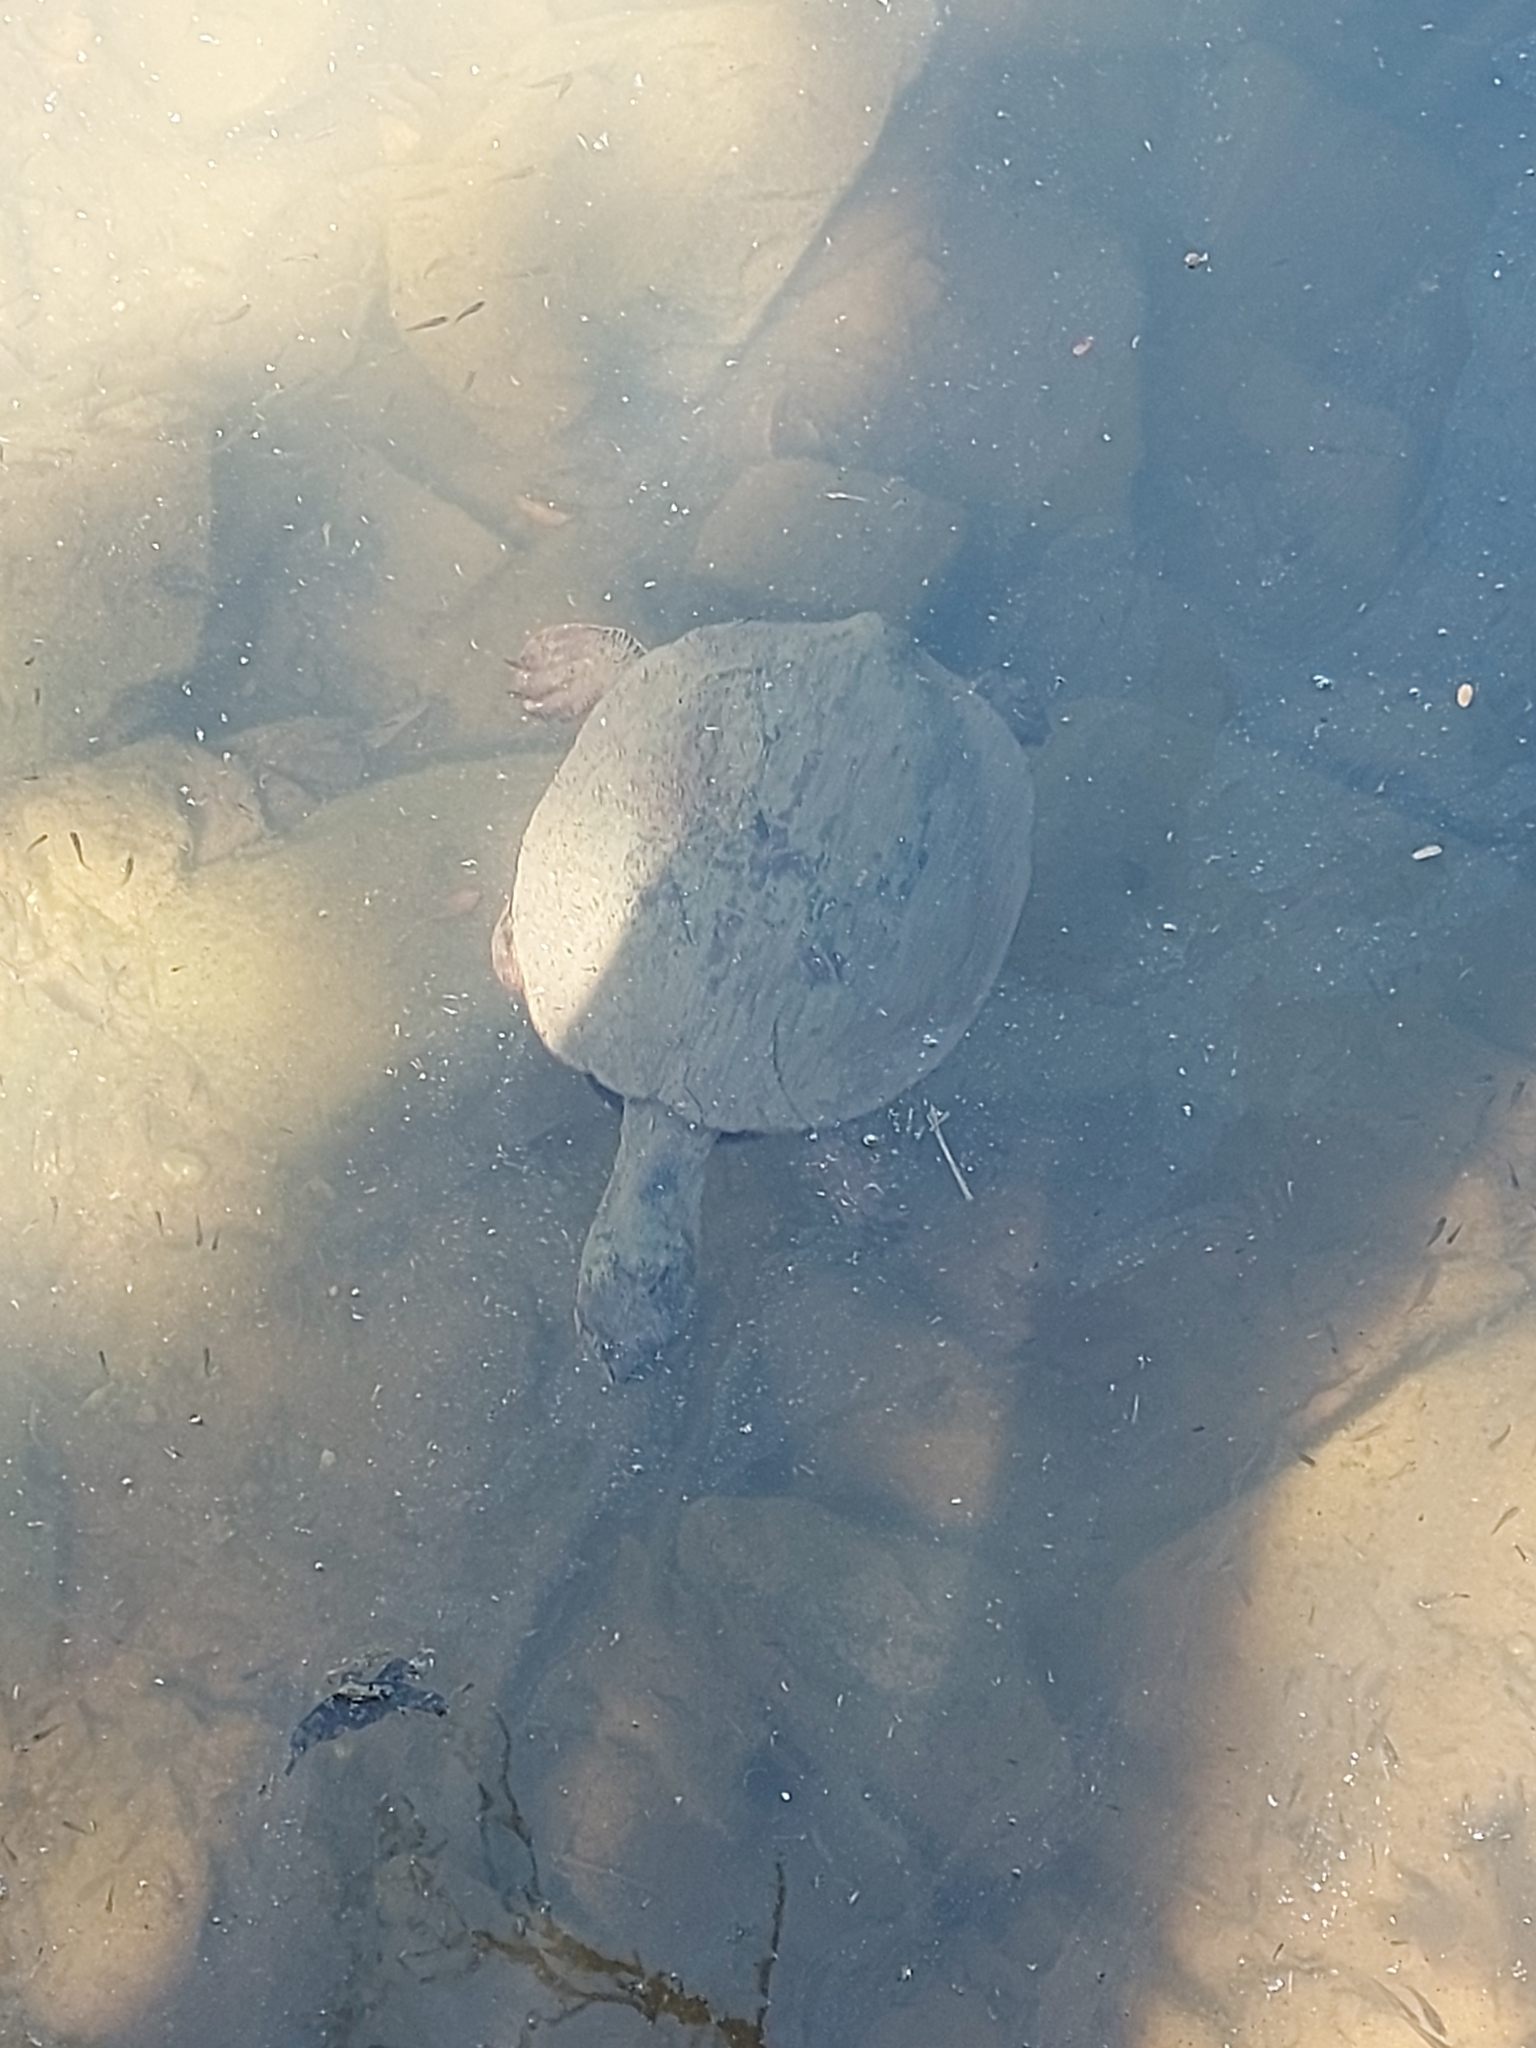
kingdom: Animalia
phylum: Chordata
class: Testudines
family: Chelidae
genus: Phrynops
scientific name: Phrynops geoffroanus
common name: Side-necked turtle of geoffroy
